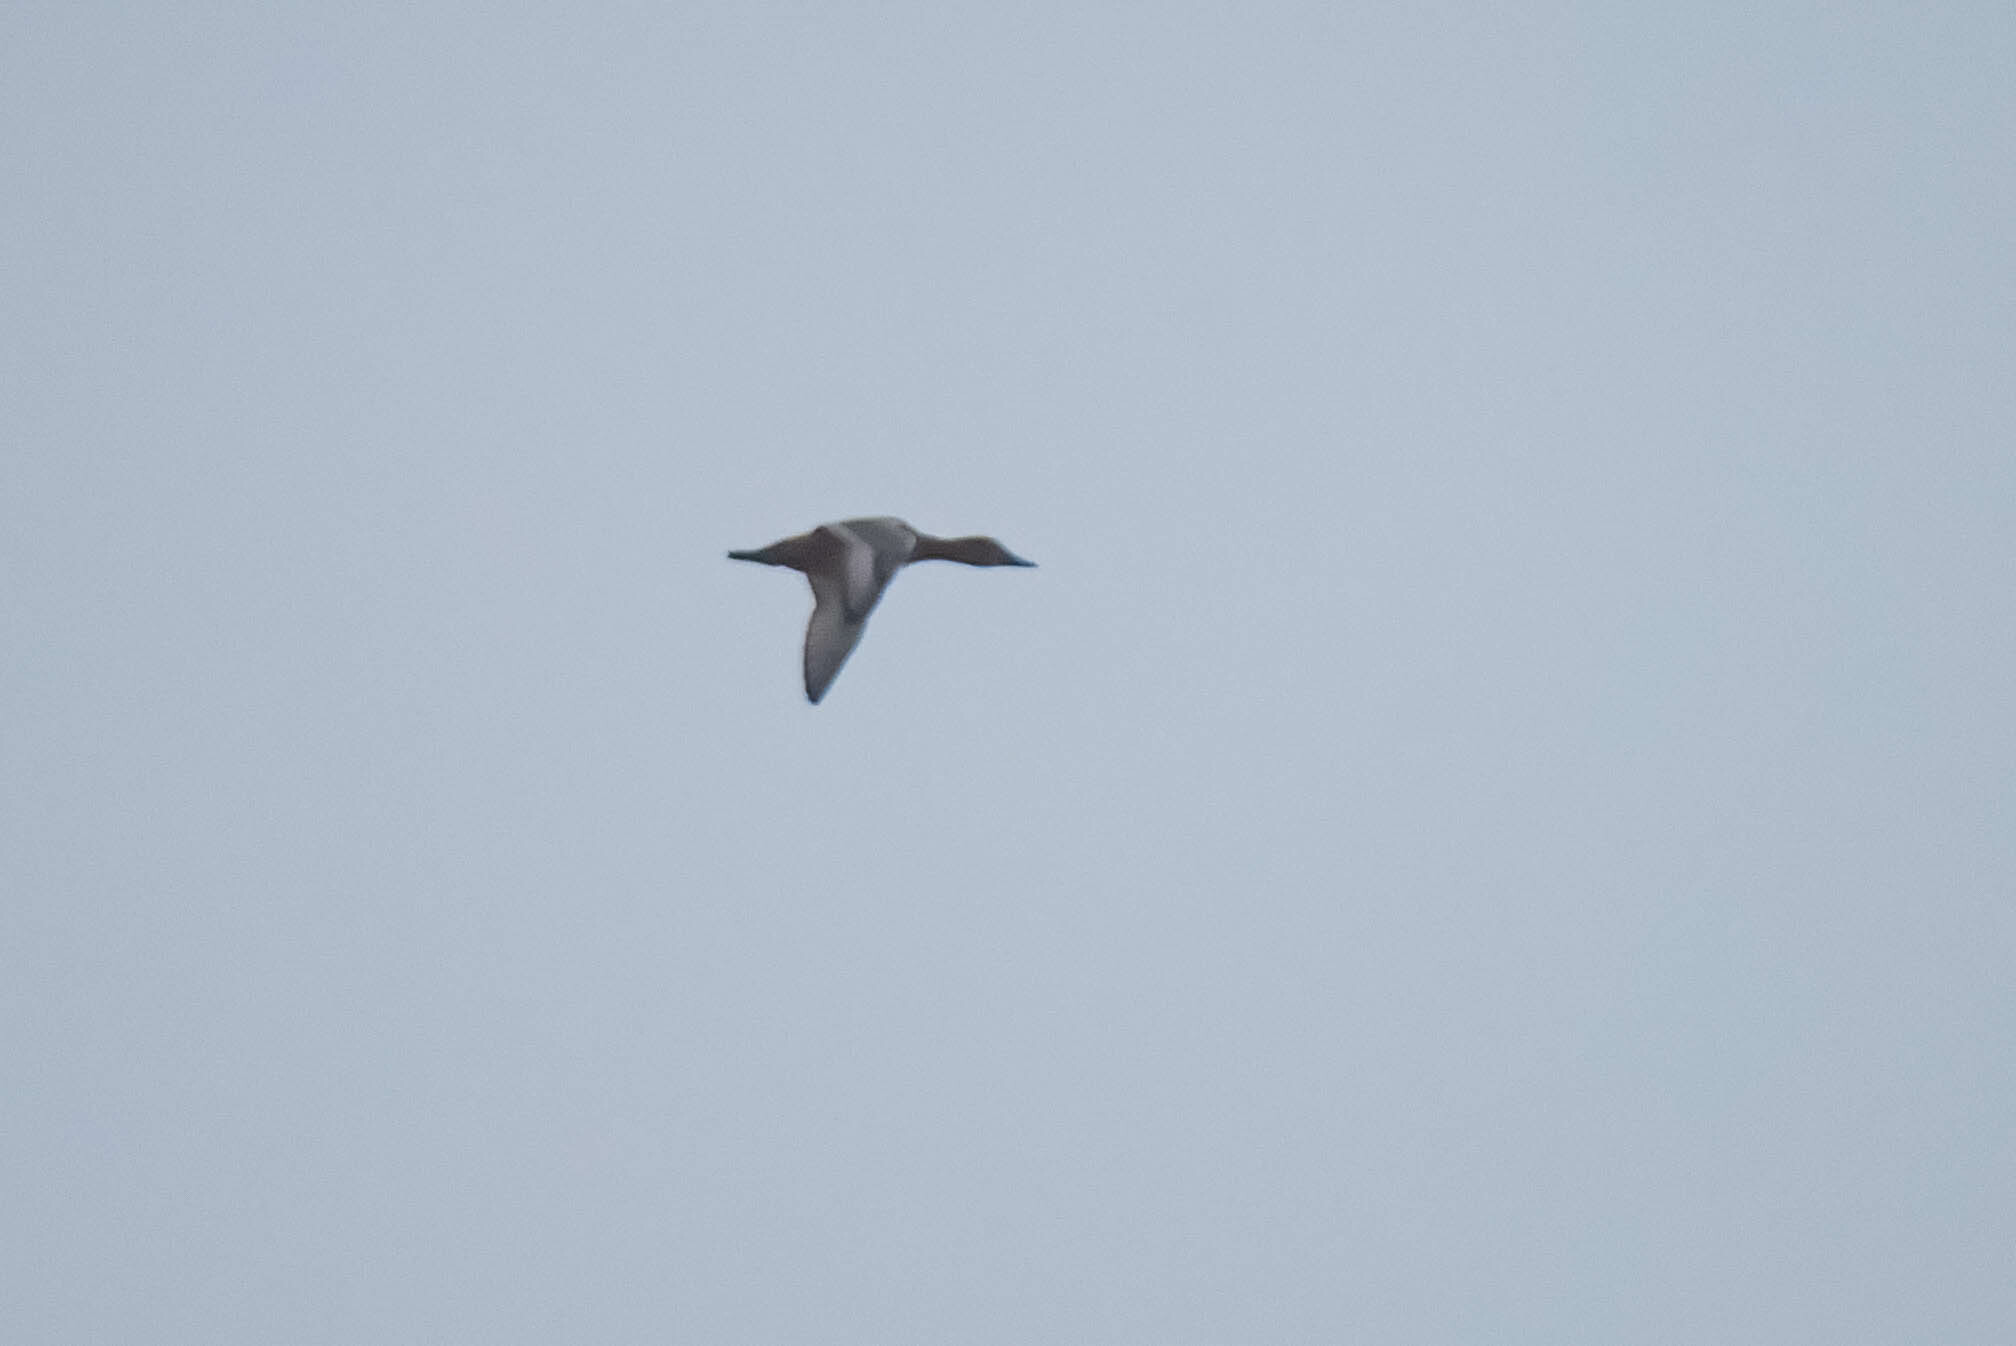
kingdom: Animalia
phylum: Chordata
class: Aves
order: Anseriformes
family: Anatidae
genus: Aythya
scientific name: Aythya ferina
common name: Common pochard
